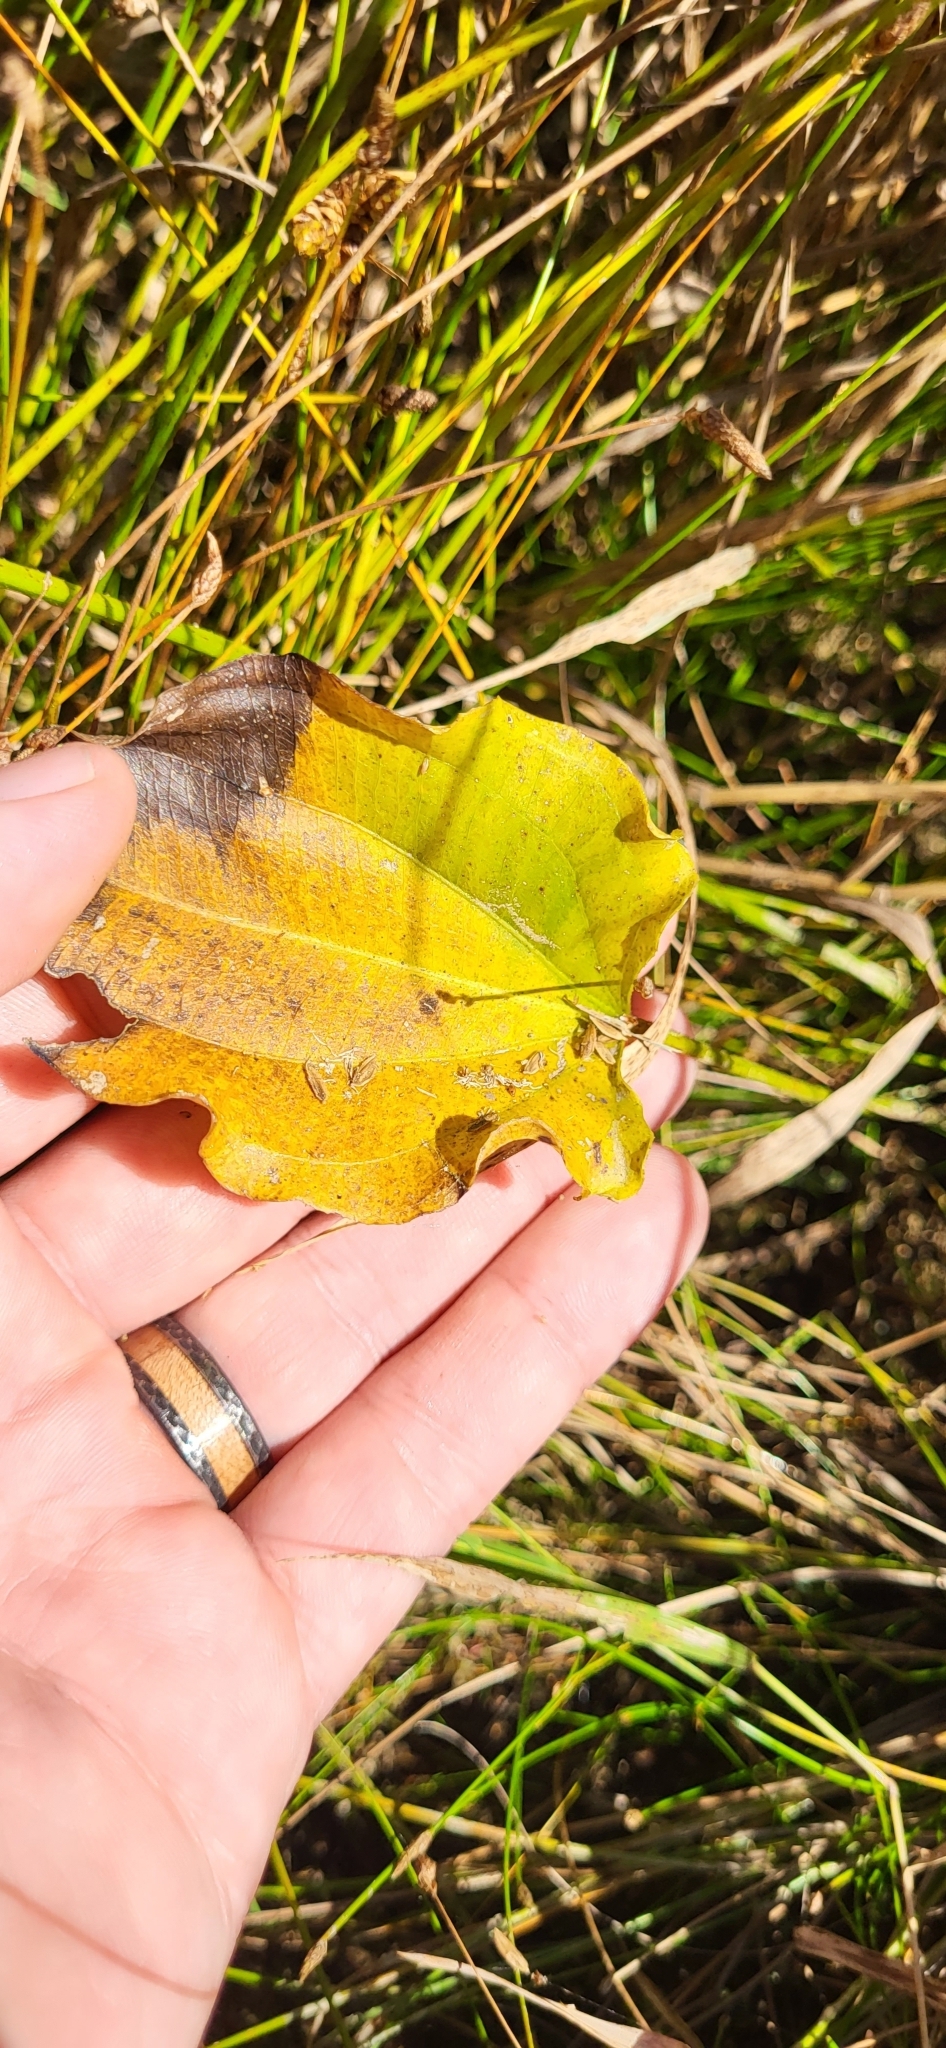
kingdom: Plantae
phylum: Tracheophyta
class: Liliopsida
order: Alismatales
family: Alismataceae
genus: Aquarius
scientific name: Aquarius cordifolius
